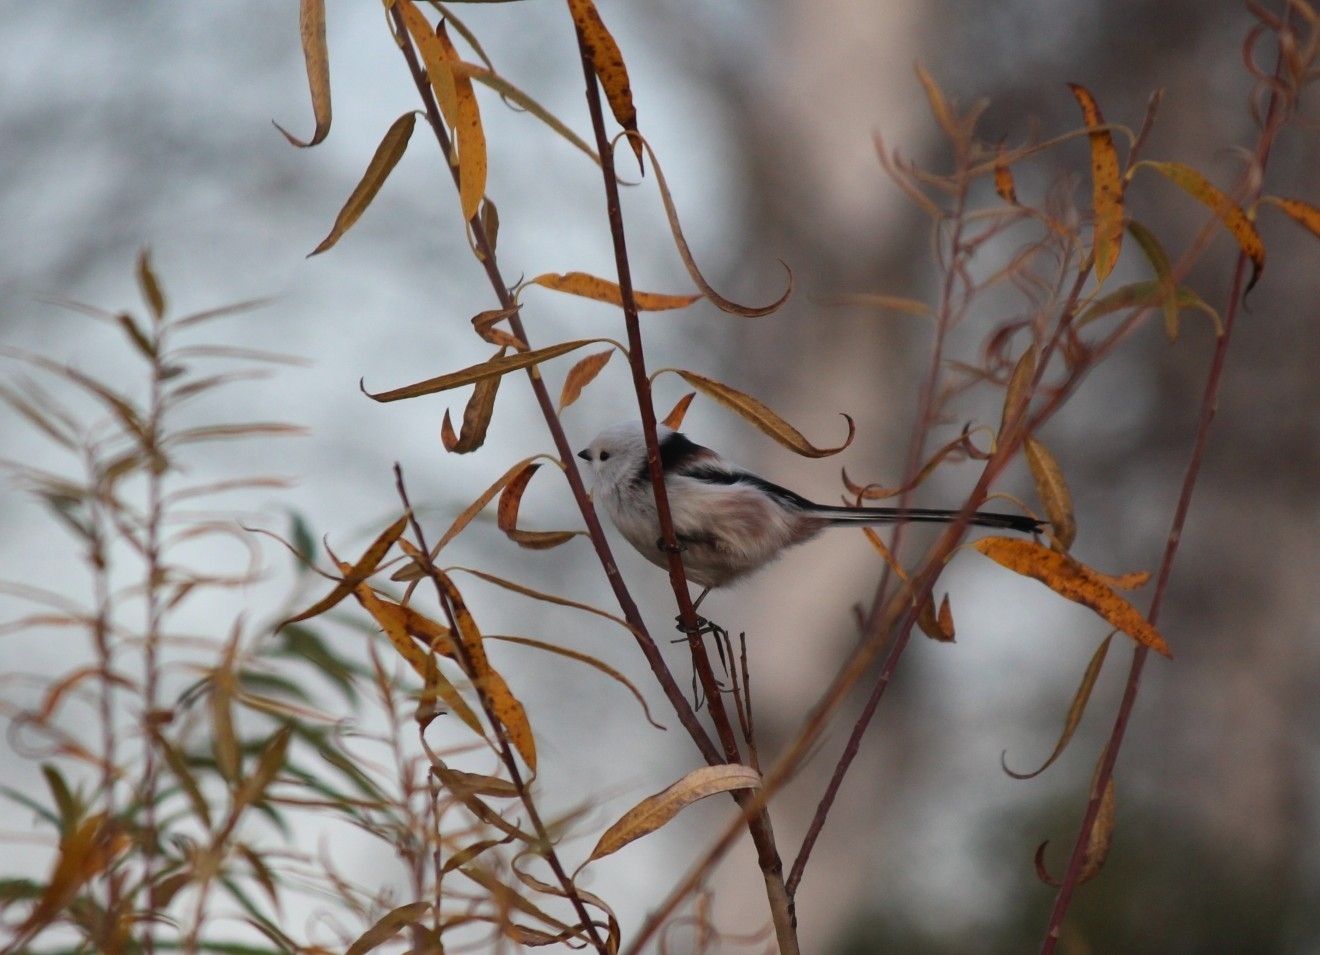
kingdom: Animalia
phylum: Chordata
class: Aves
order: Passeriformes
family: Aegithalidae
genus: Aegithalos
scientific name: Aegithalos caudatus
